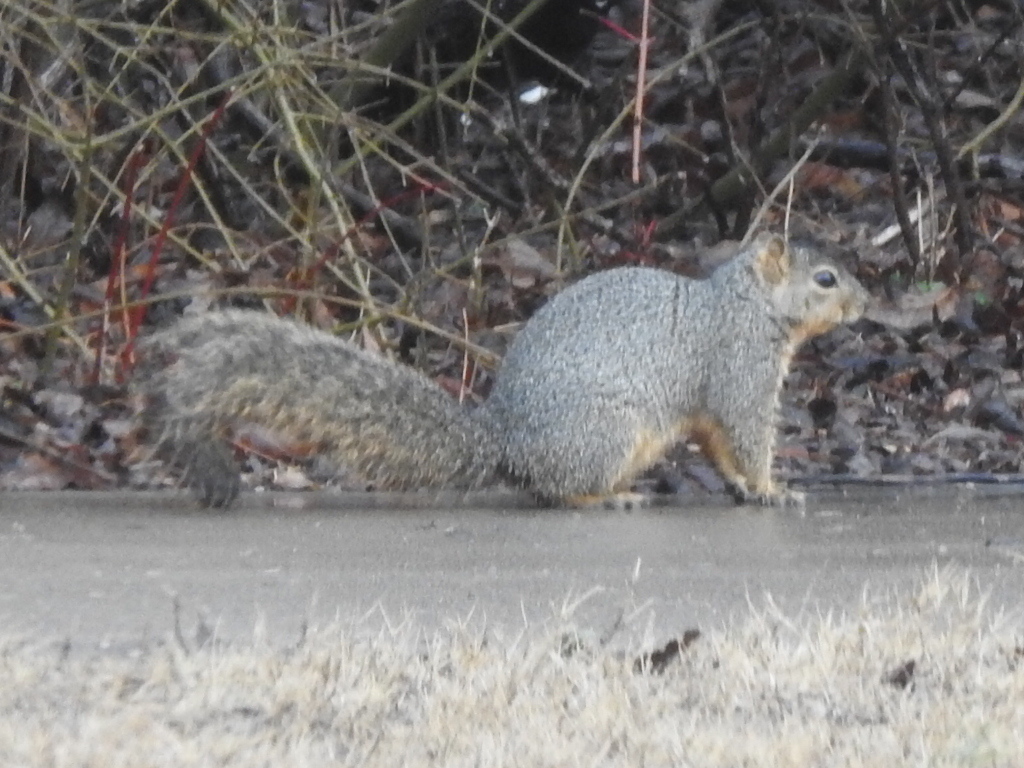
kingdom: Animalia
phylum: Chordata
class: Mammalia
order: Rodentia
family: Sciuridae
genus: Sciurus
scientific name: Sciurus niger
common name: Fox squirrel
